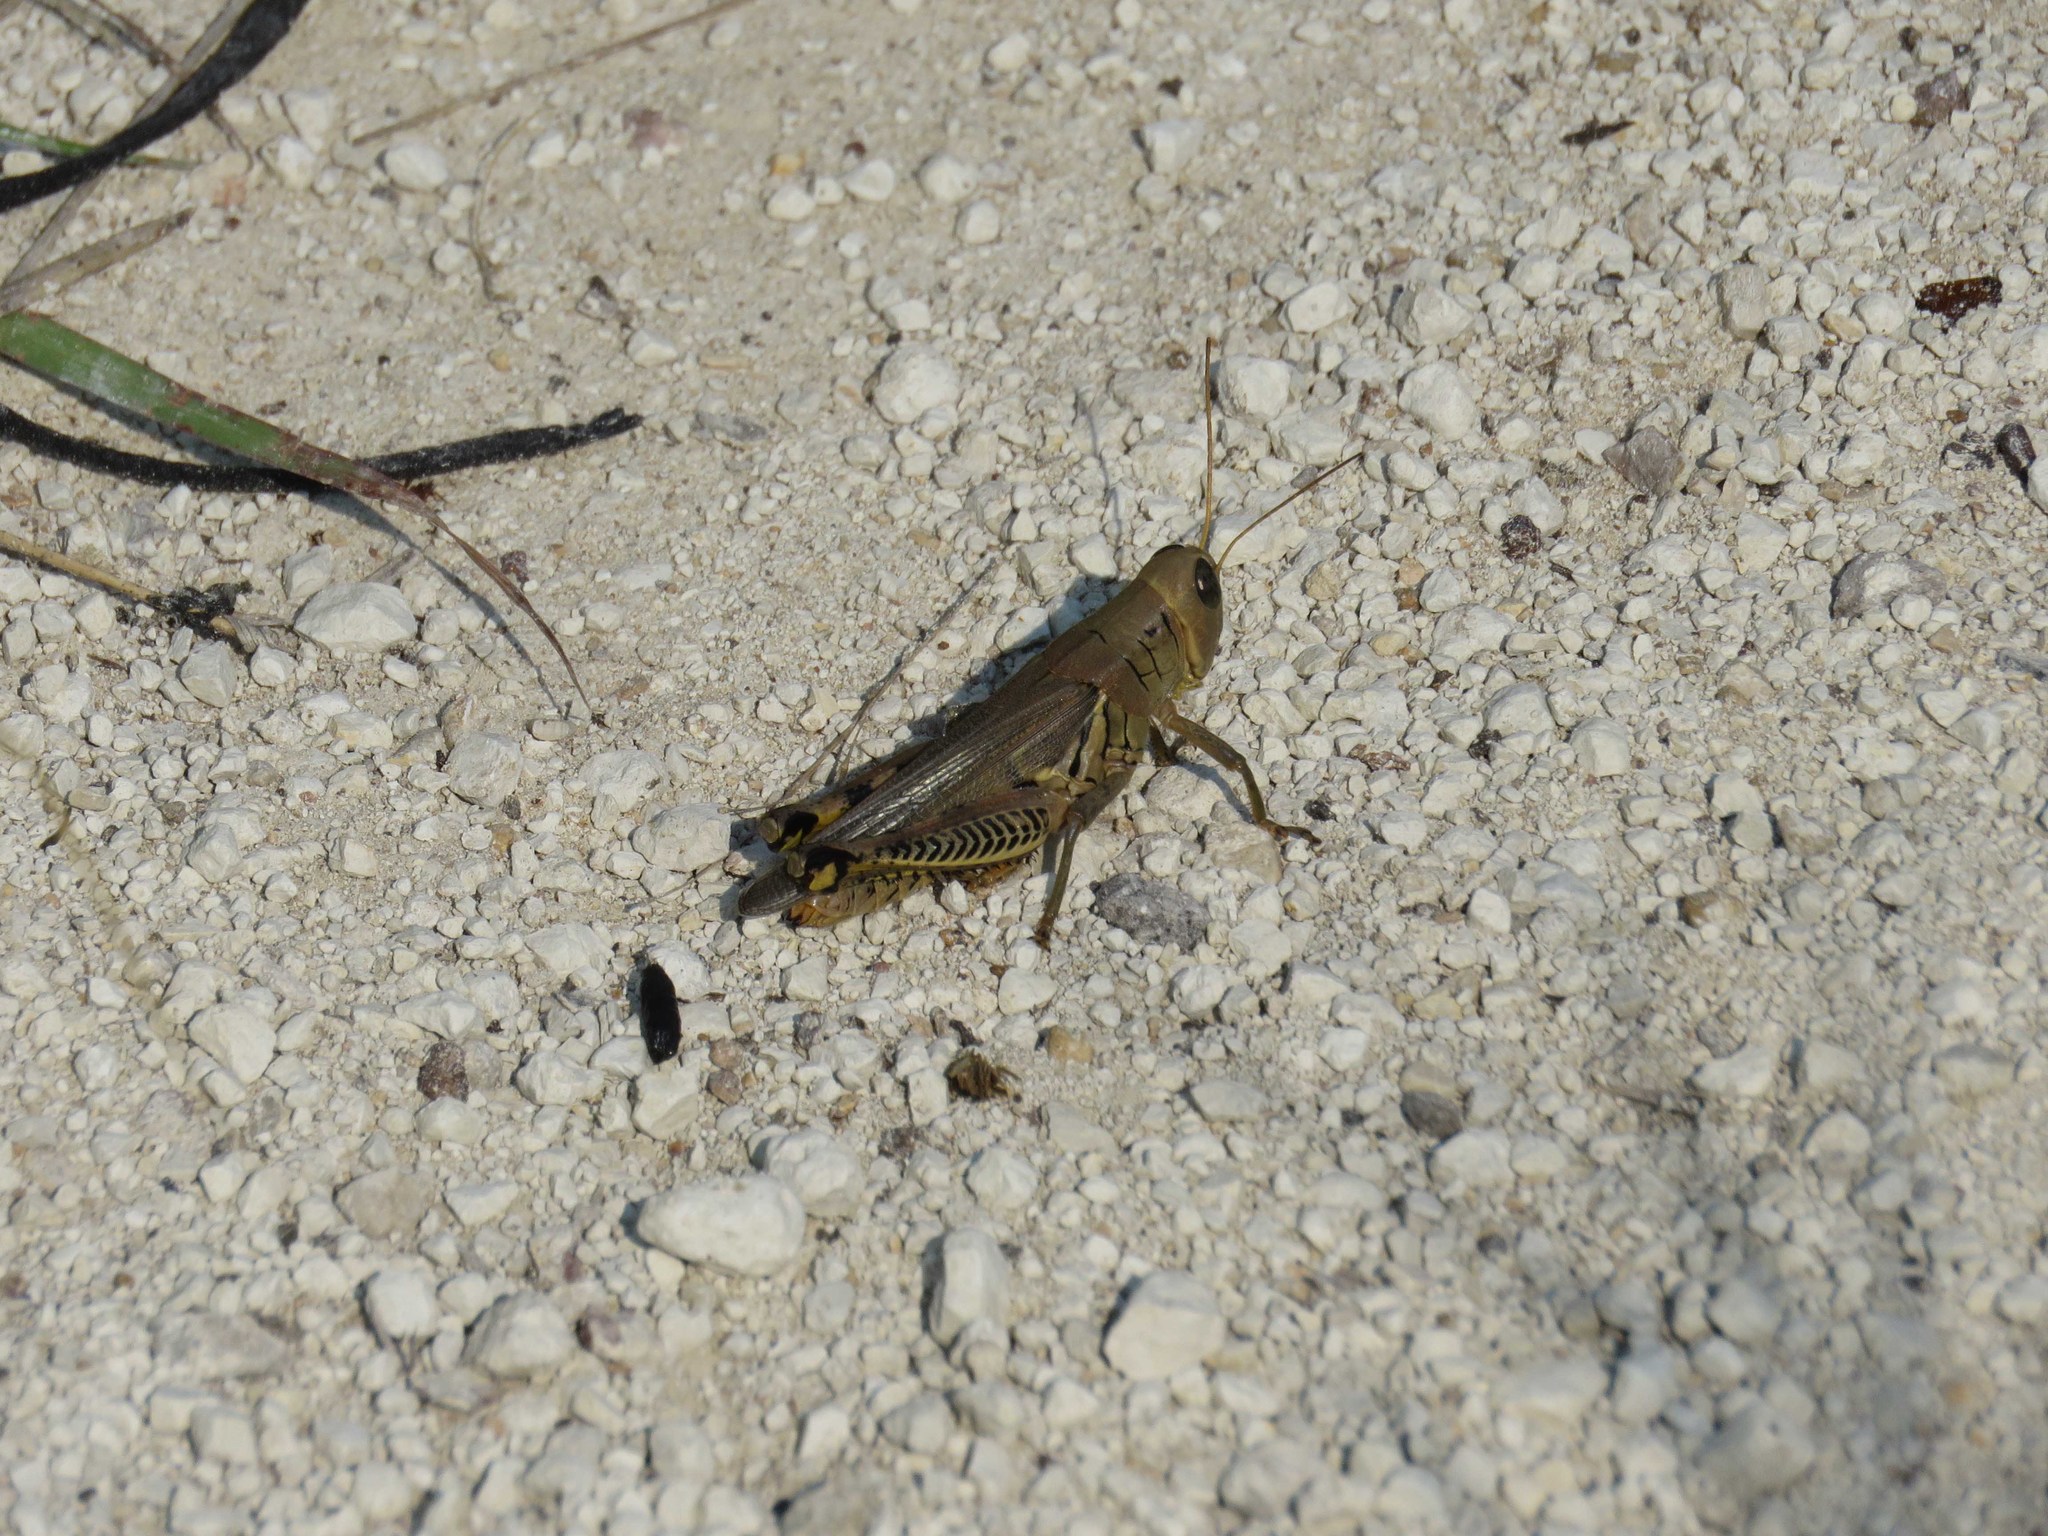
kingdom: Animalia
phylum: Arthropoda
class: Insecta
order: Orthoptera
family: Acrididae
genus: Melanoplus
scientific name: Melanoplus differentialis
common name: Differential grasshopper
